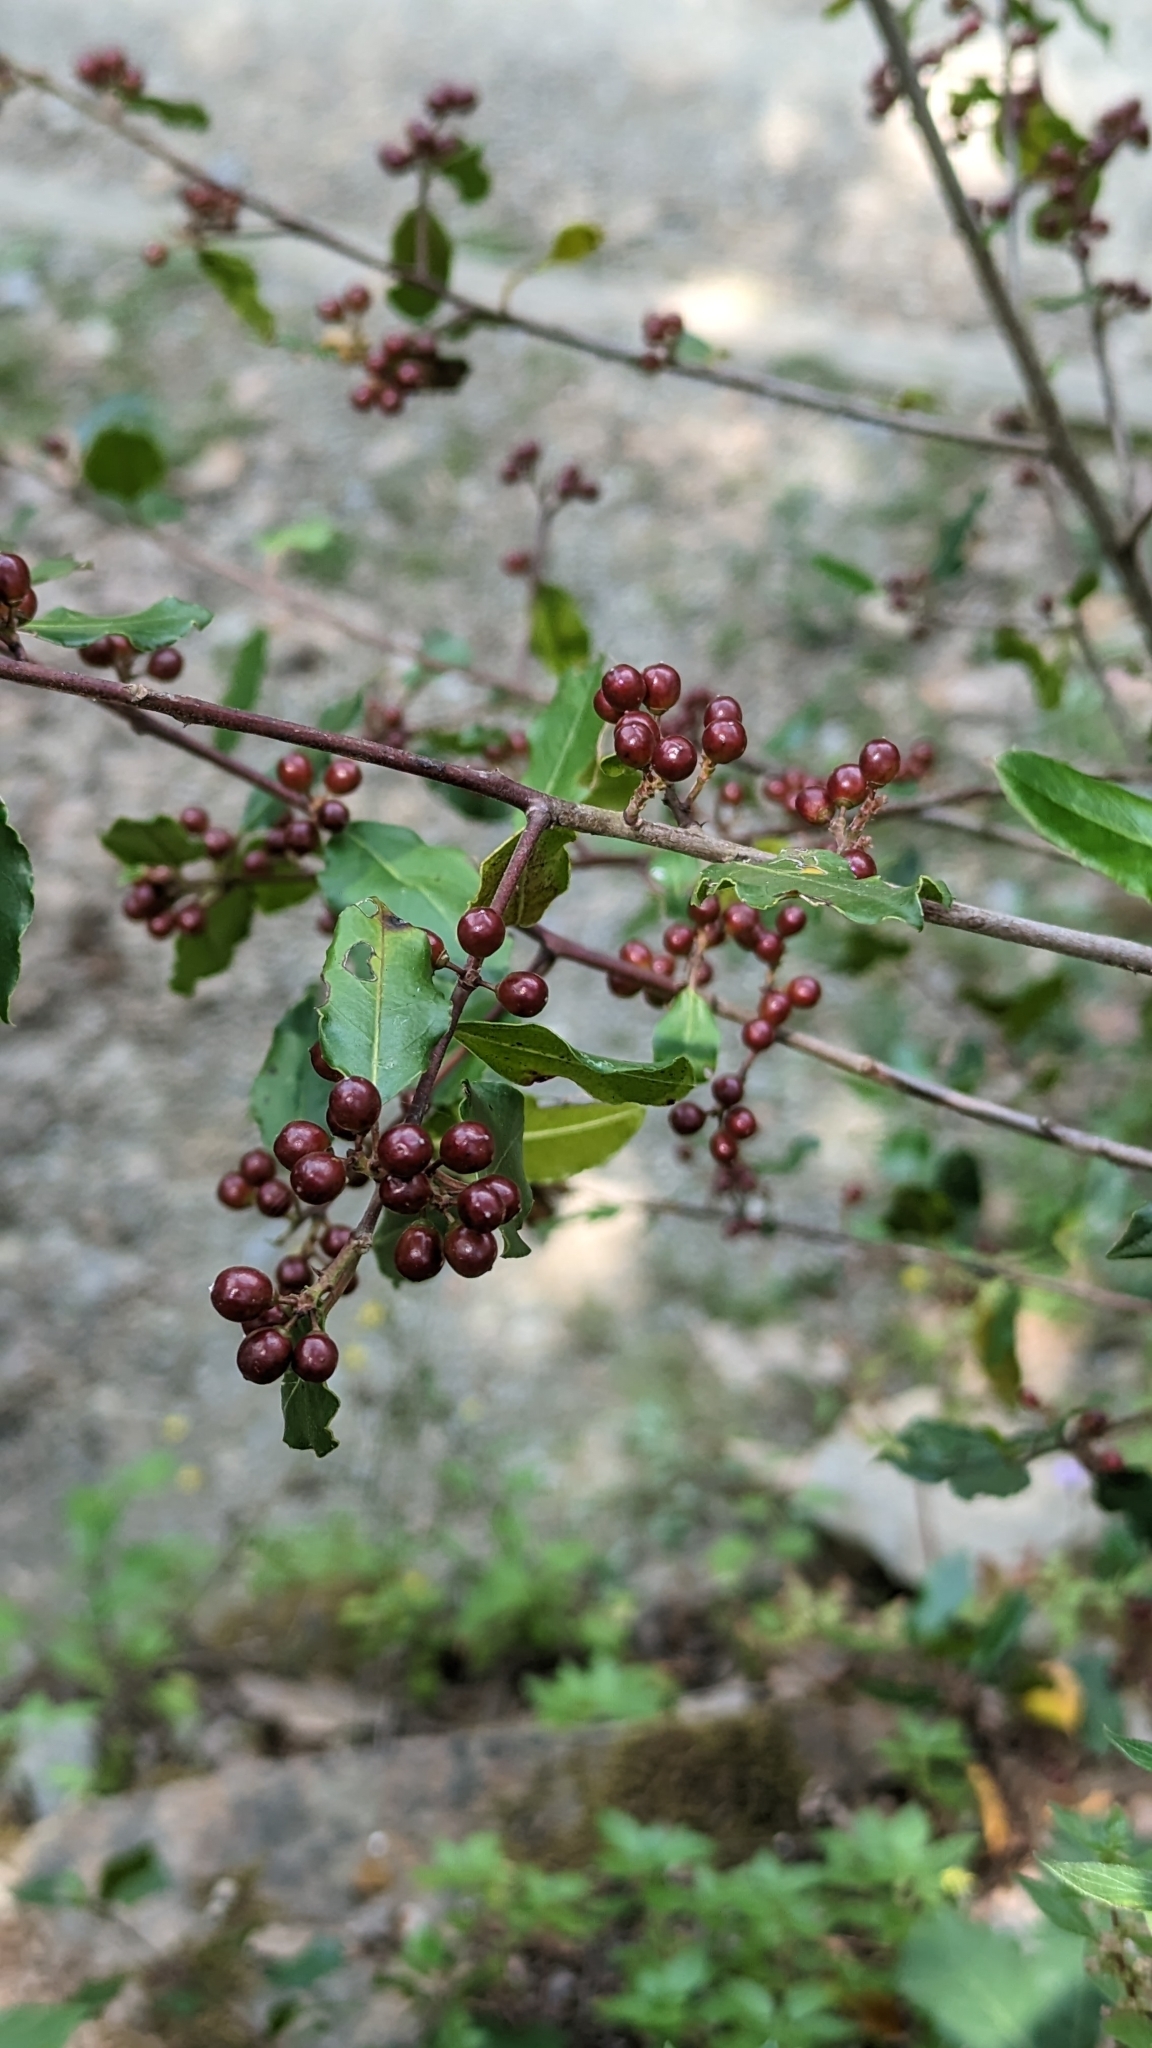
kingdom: Plantae
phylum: Tracheophyta
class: Magnoliopsida
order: Rosales
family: Rhamnaceae
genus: Rhamnus
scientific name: Rhamnus alaternus
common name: Mediterranean buckthorn
